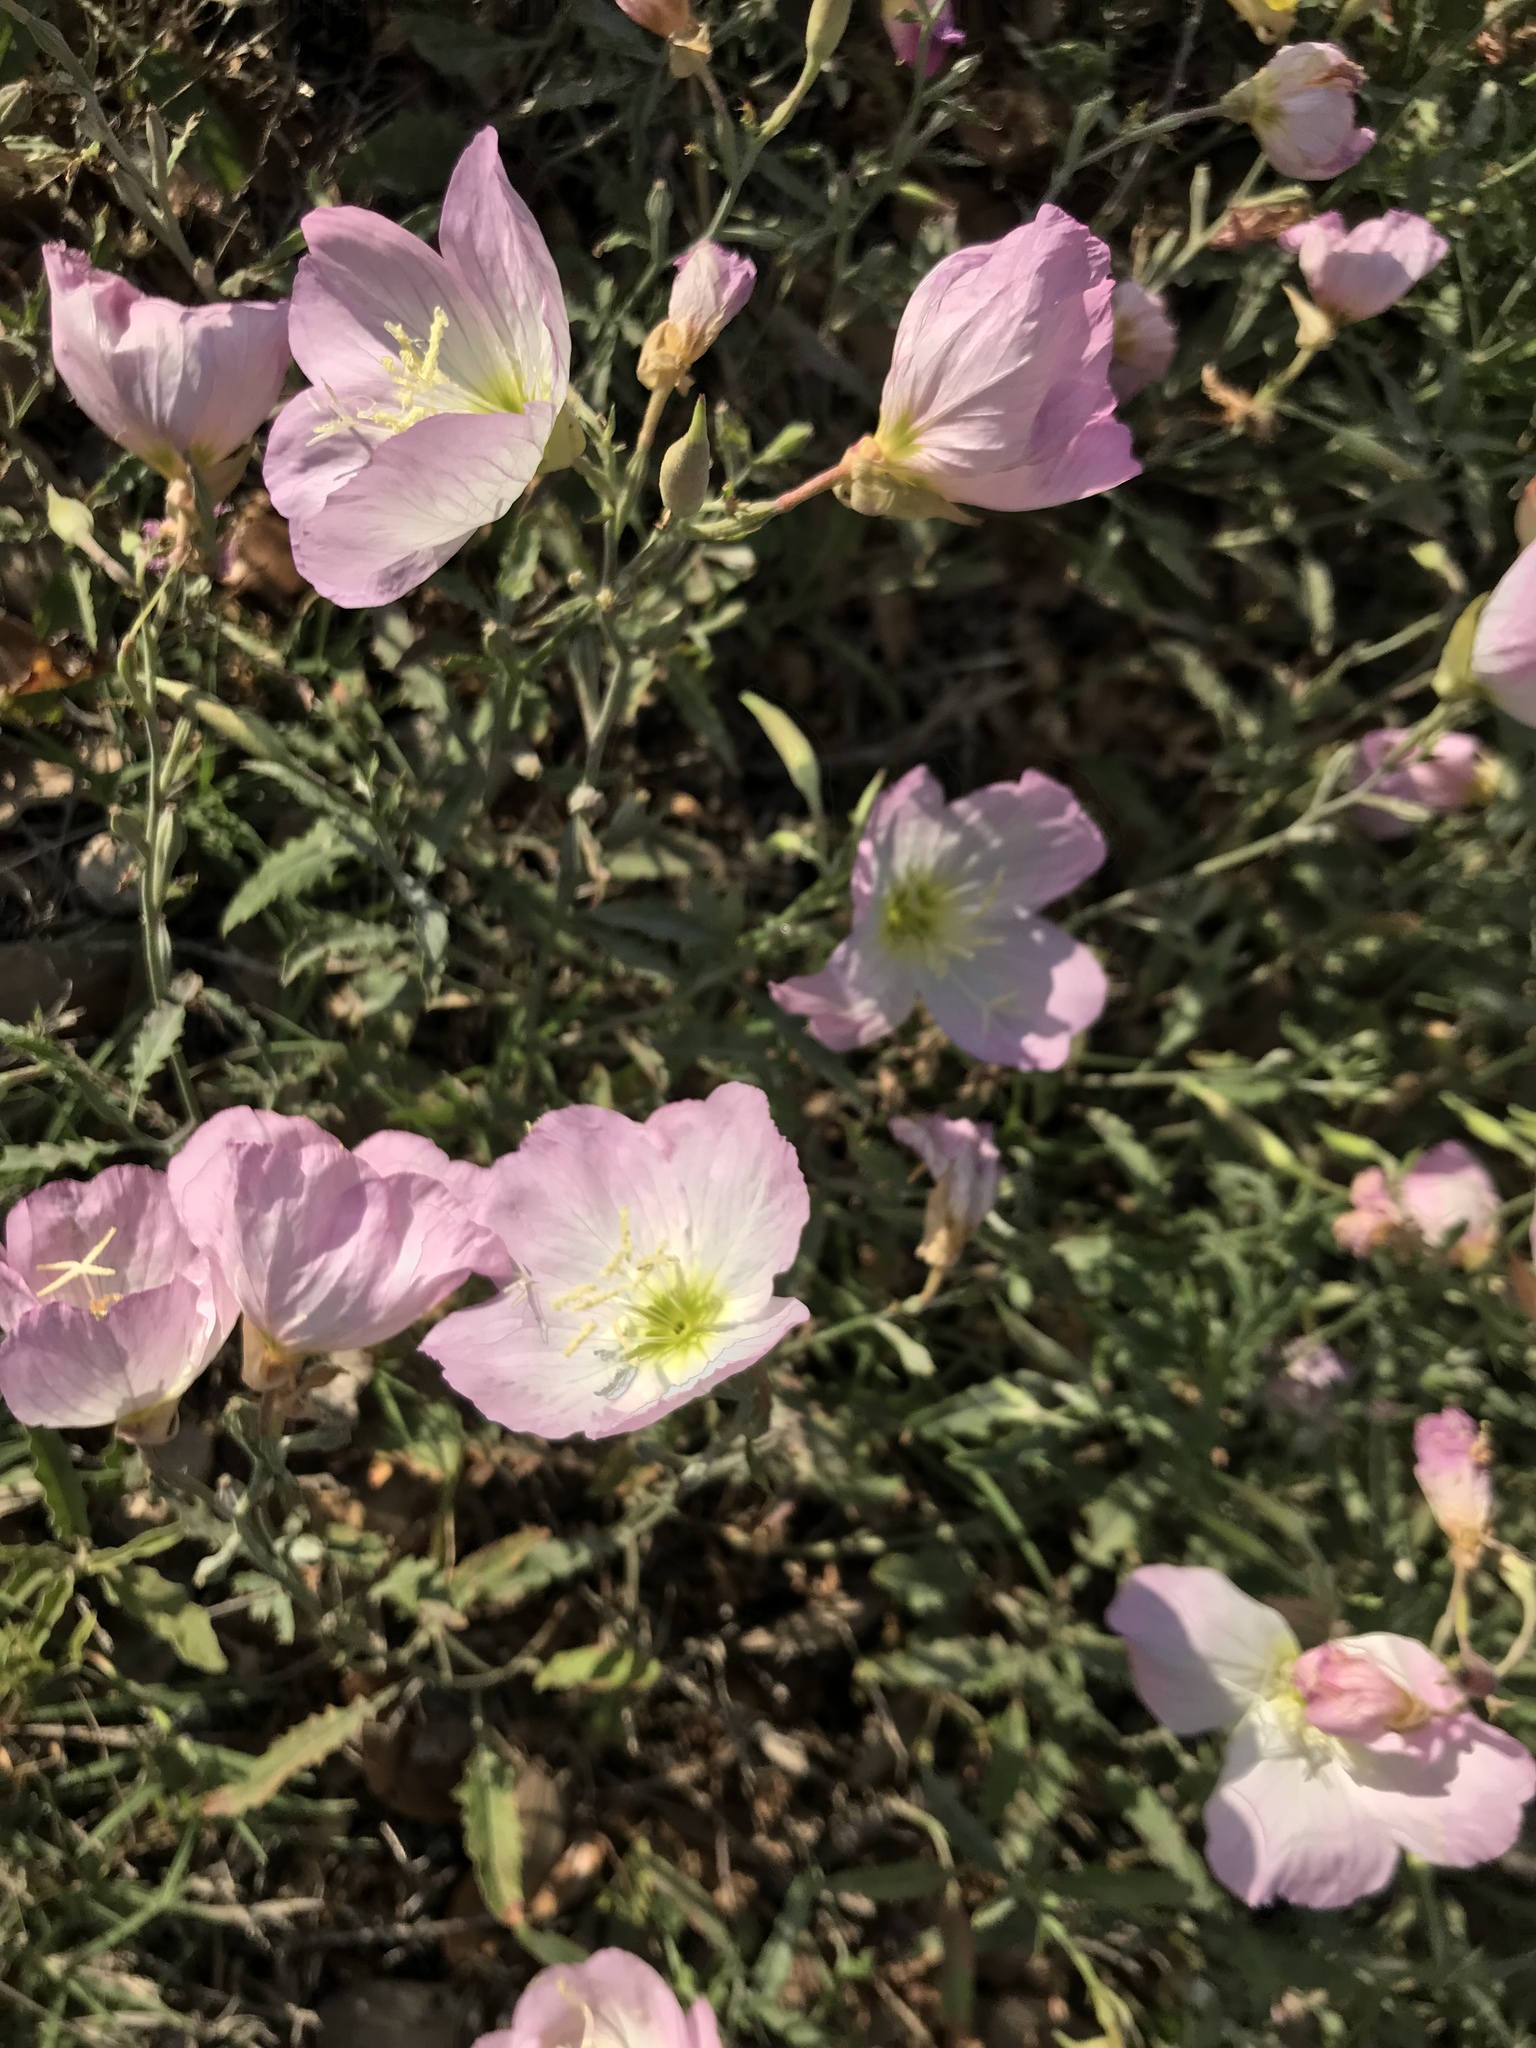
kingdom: Plantae
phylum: Tracheophyta
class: Magnoliopsida
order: Myrtales
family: Onagraceae
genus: Oenothera
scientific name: Oenothera speciosa
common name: White evening-primrose
